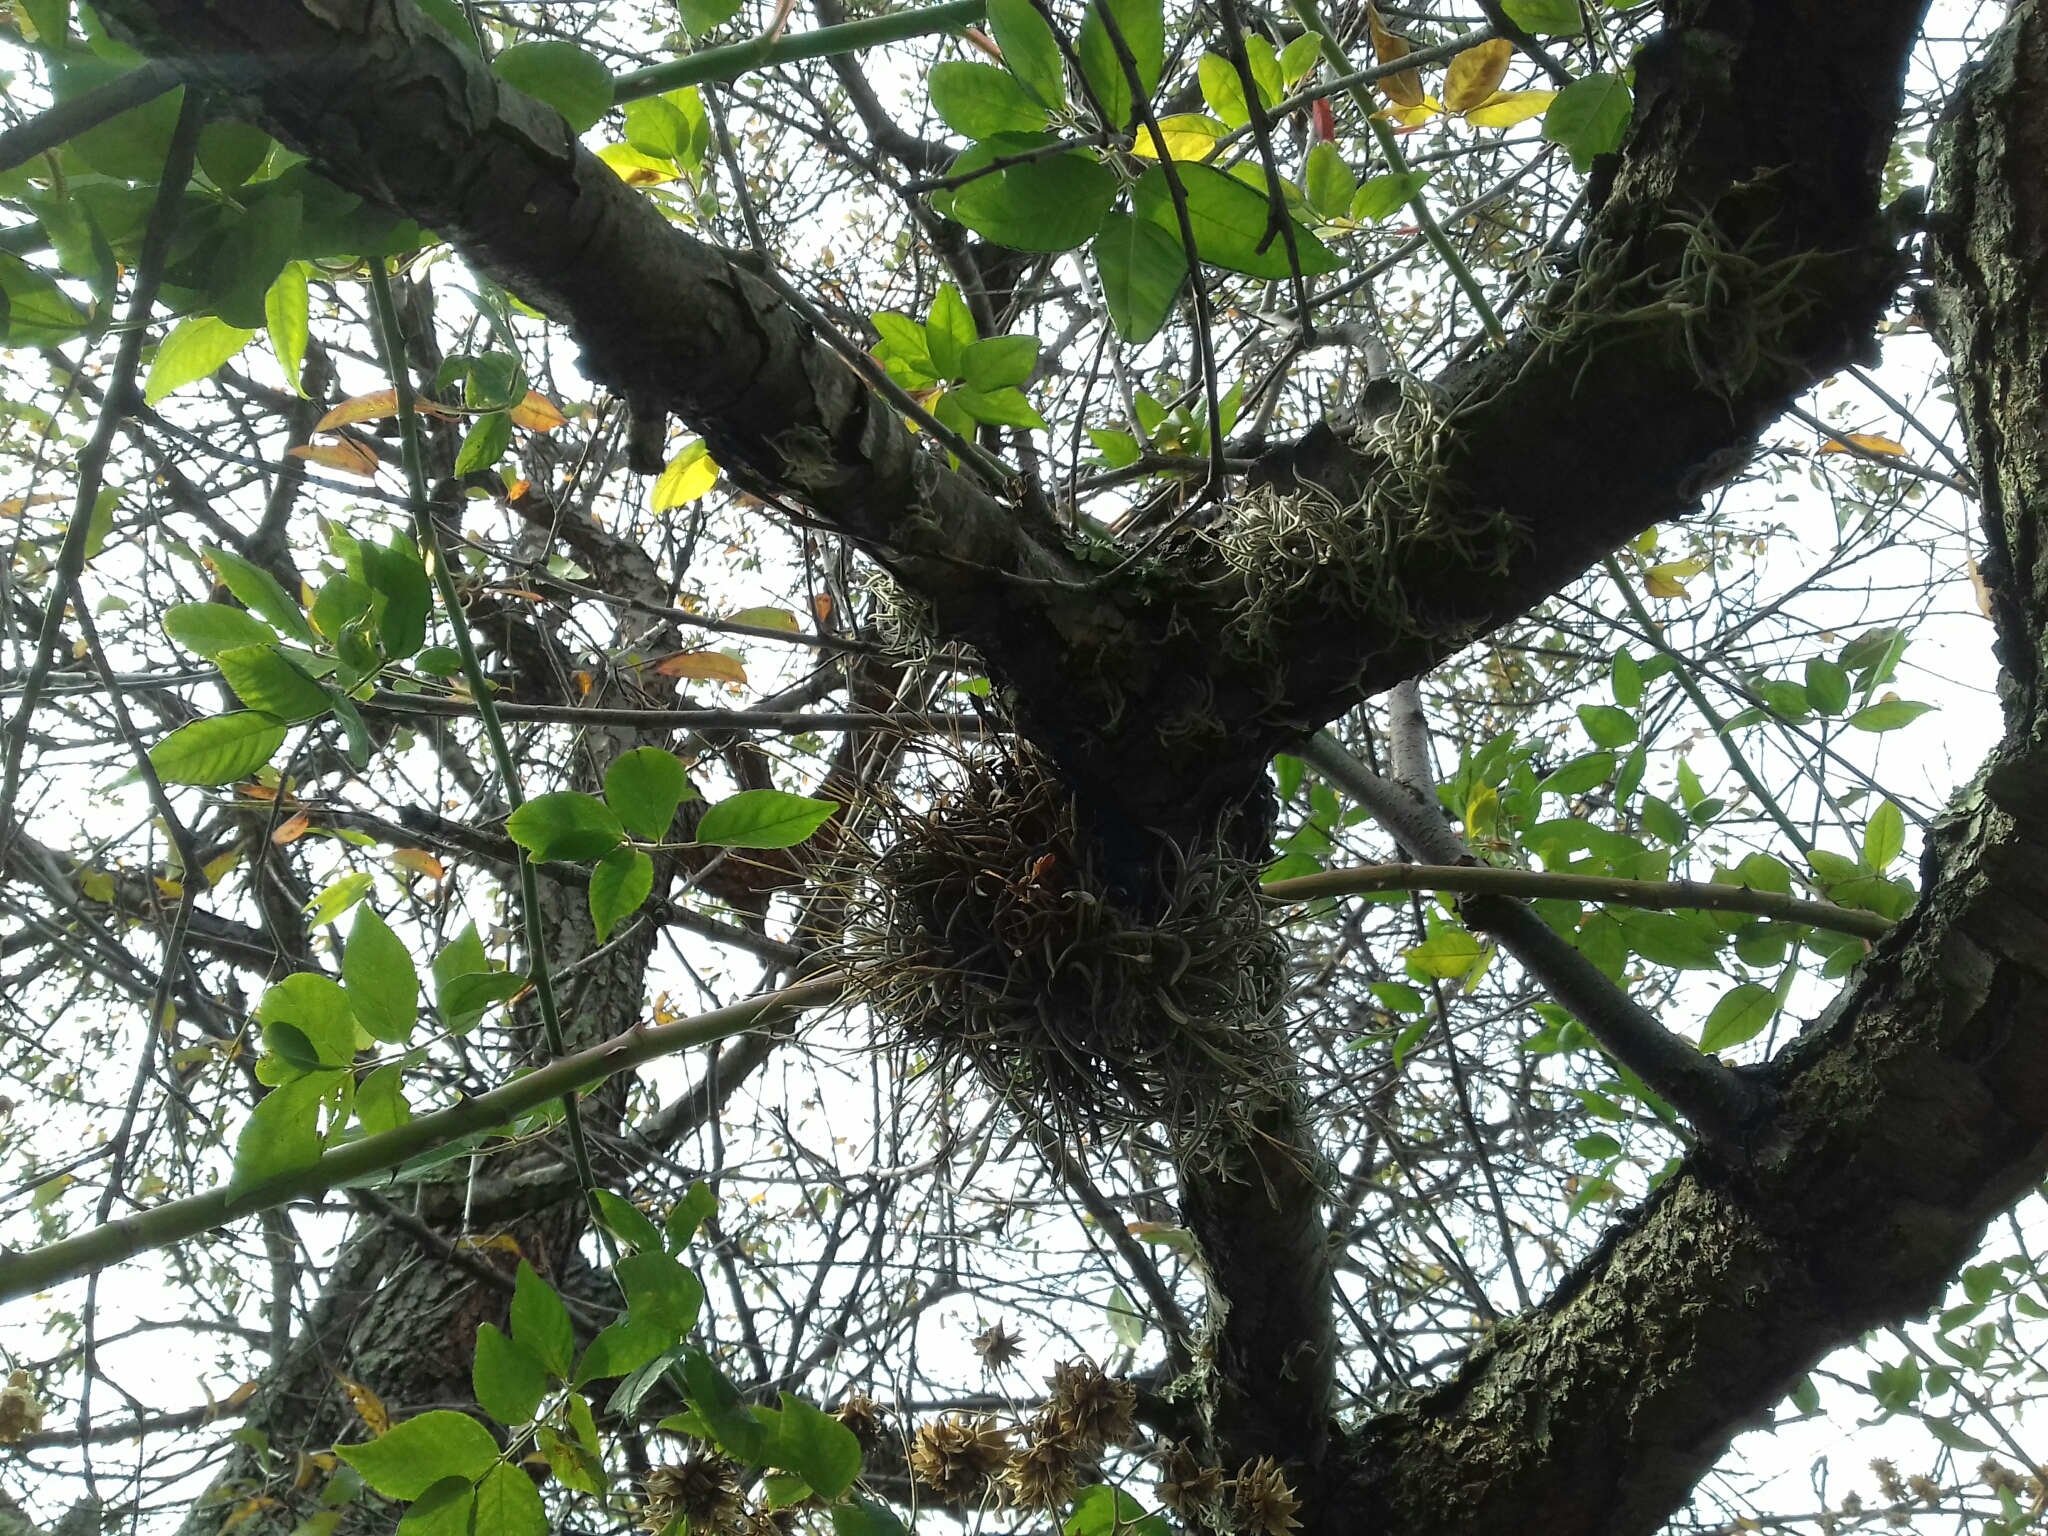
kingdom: Plantae
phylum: Tracheophyta
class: Liliopsida
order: Poales
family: Bromeliaceae
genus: Tillandsia
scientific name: Tillandsia recurvata
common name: Small ballmoss
